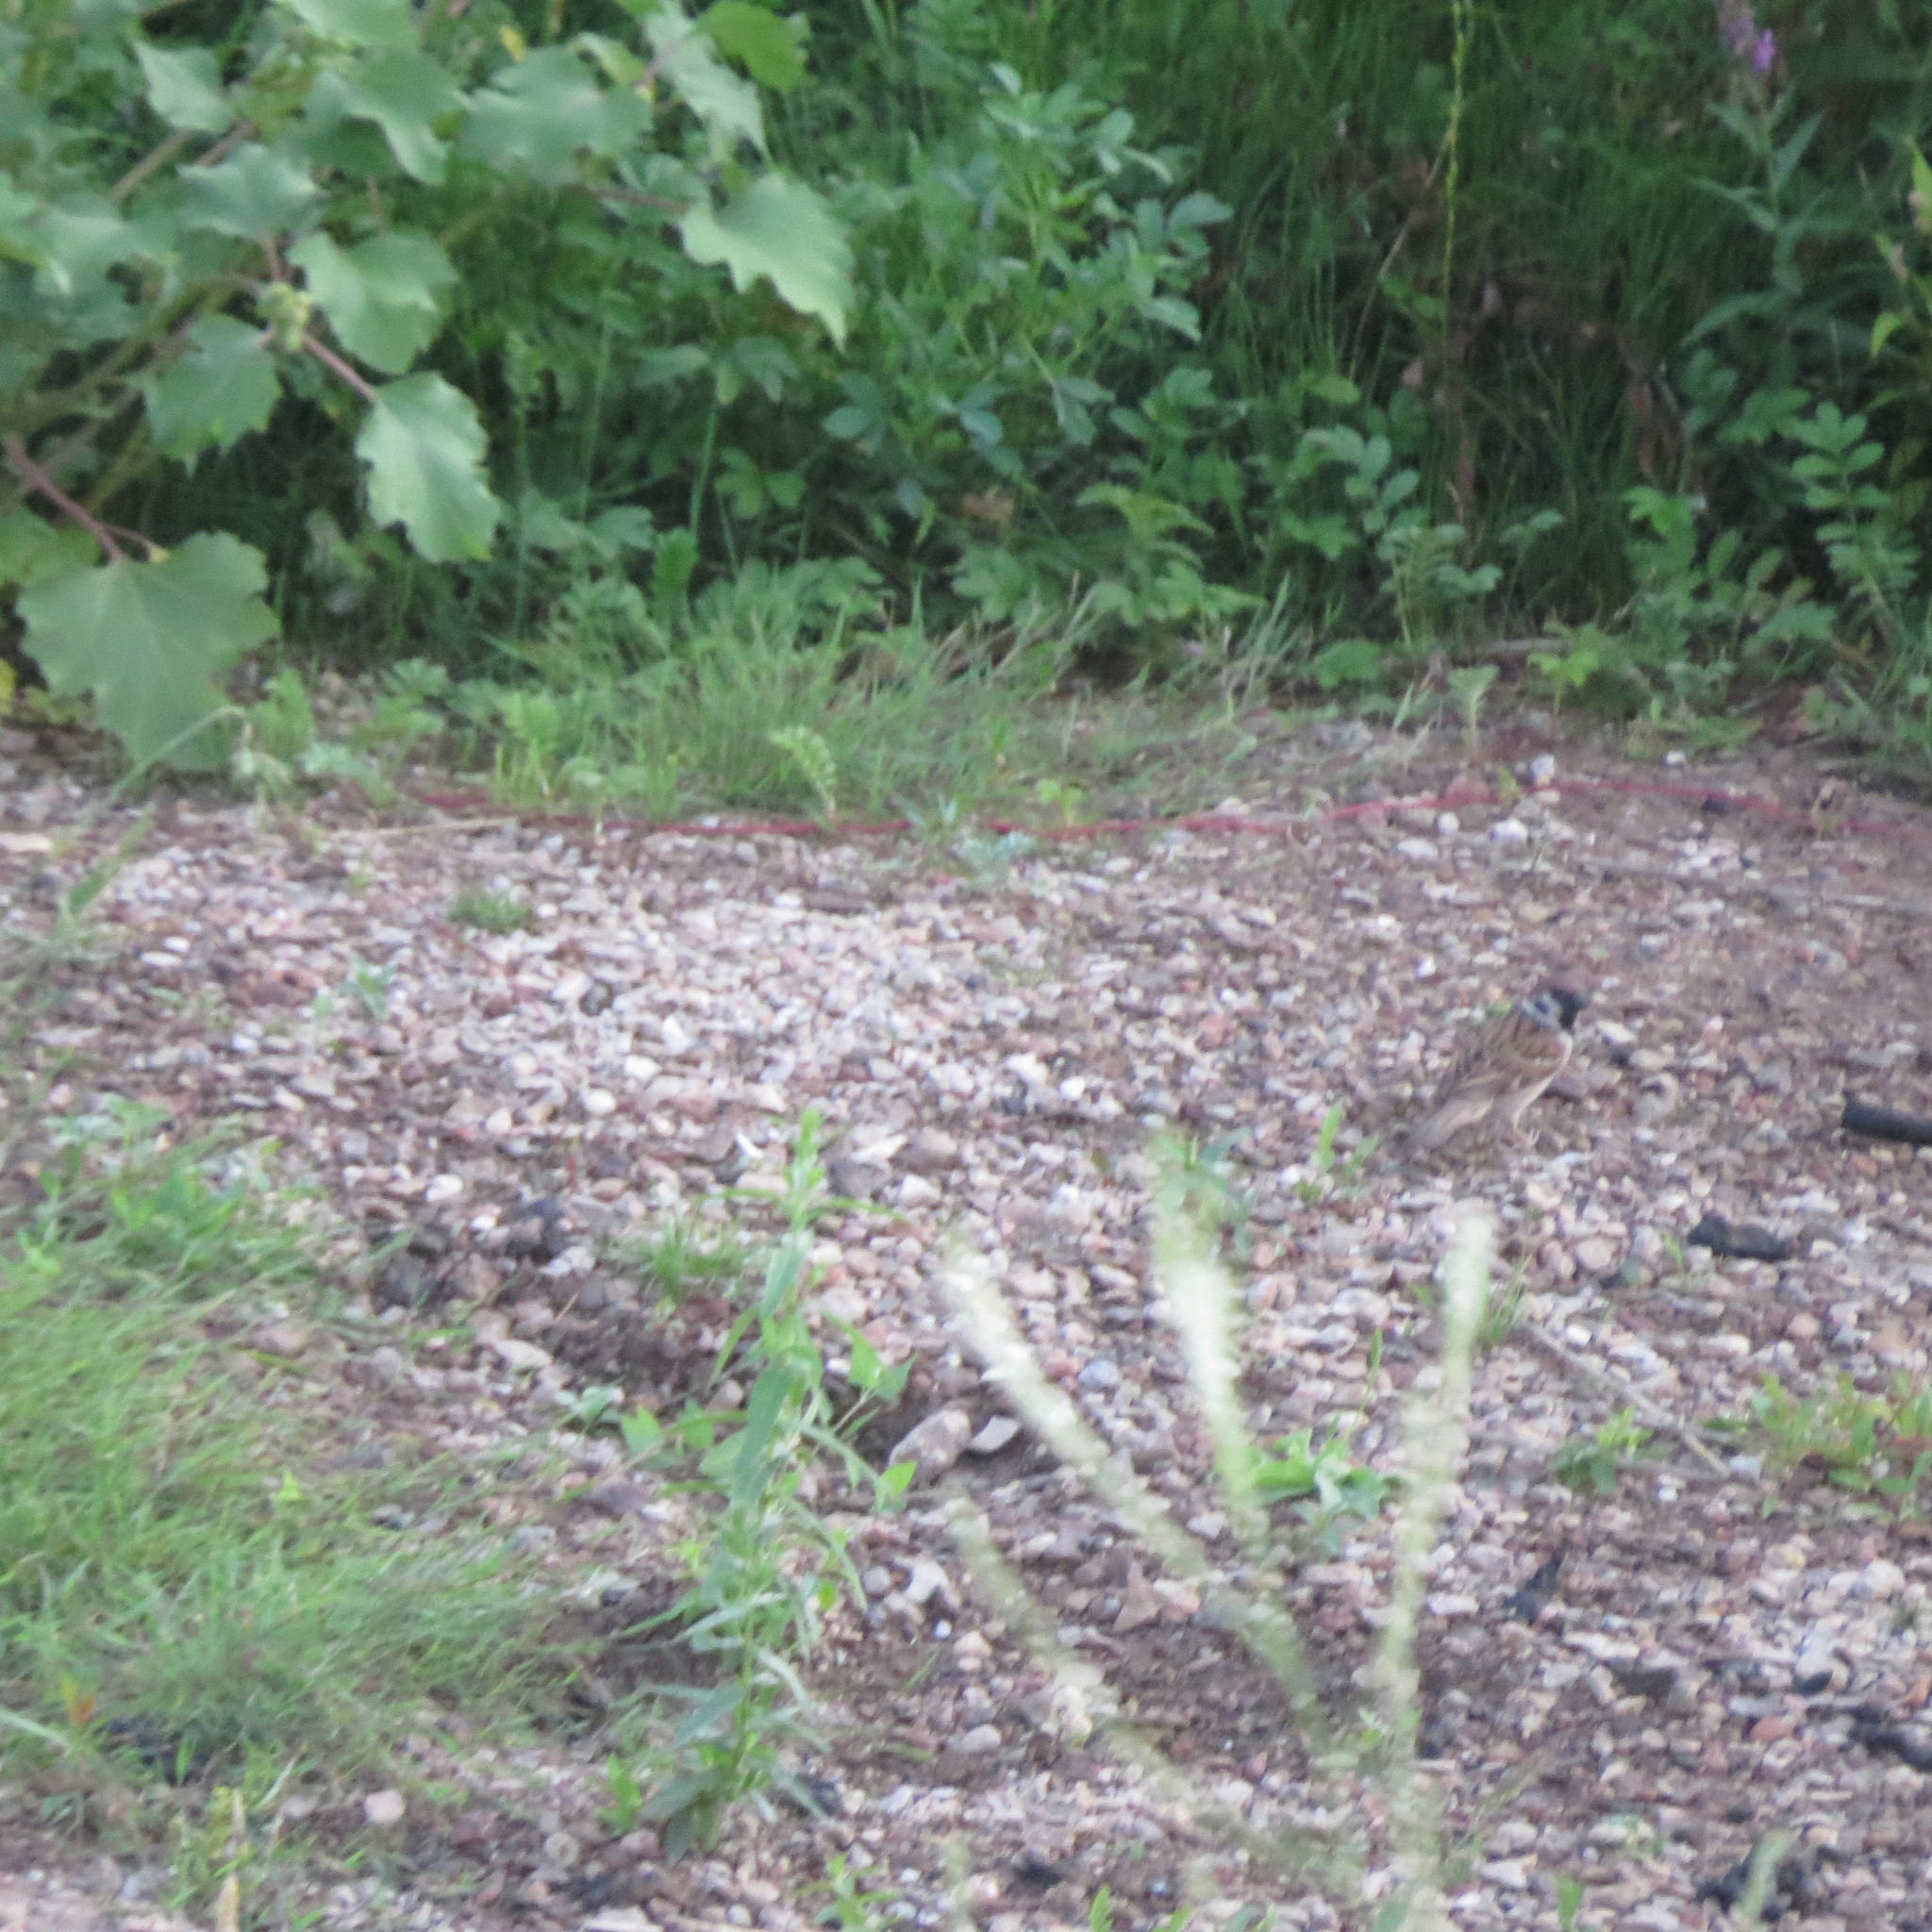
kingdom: Animalia
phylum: Chordata
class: Aves
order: Passeriformes
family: Passeridae
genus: Passer
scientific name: Passer montanus
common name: Eurasian tree sparrow
